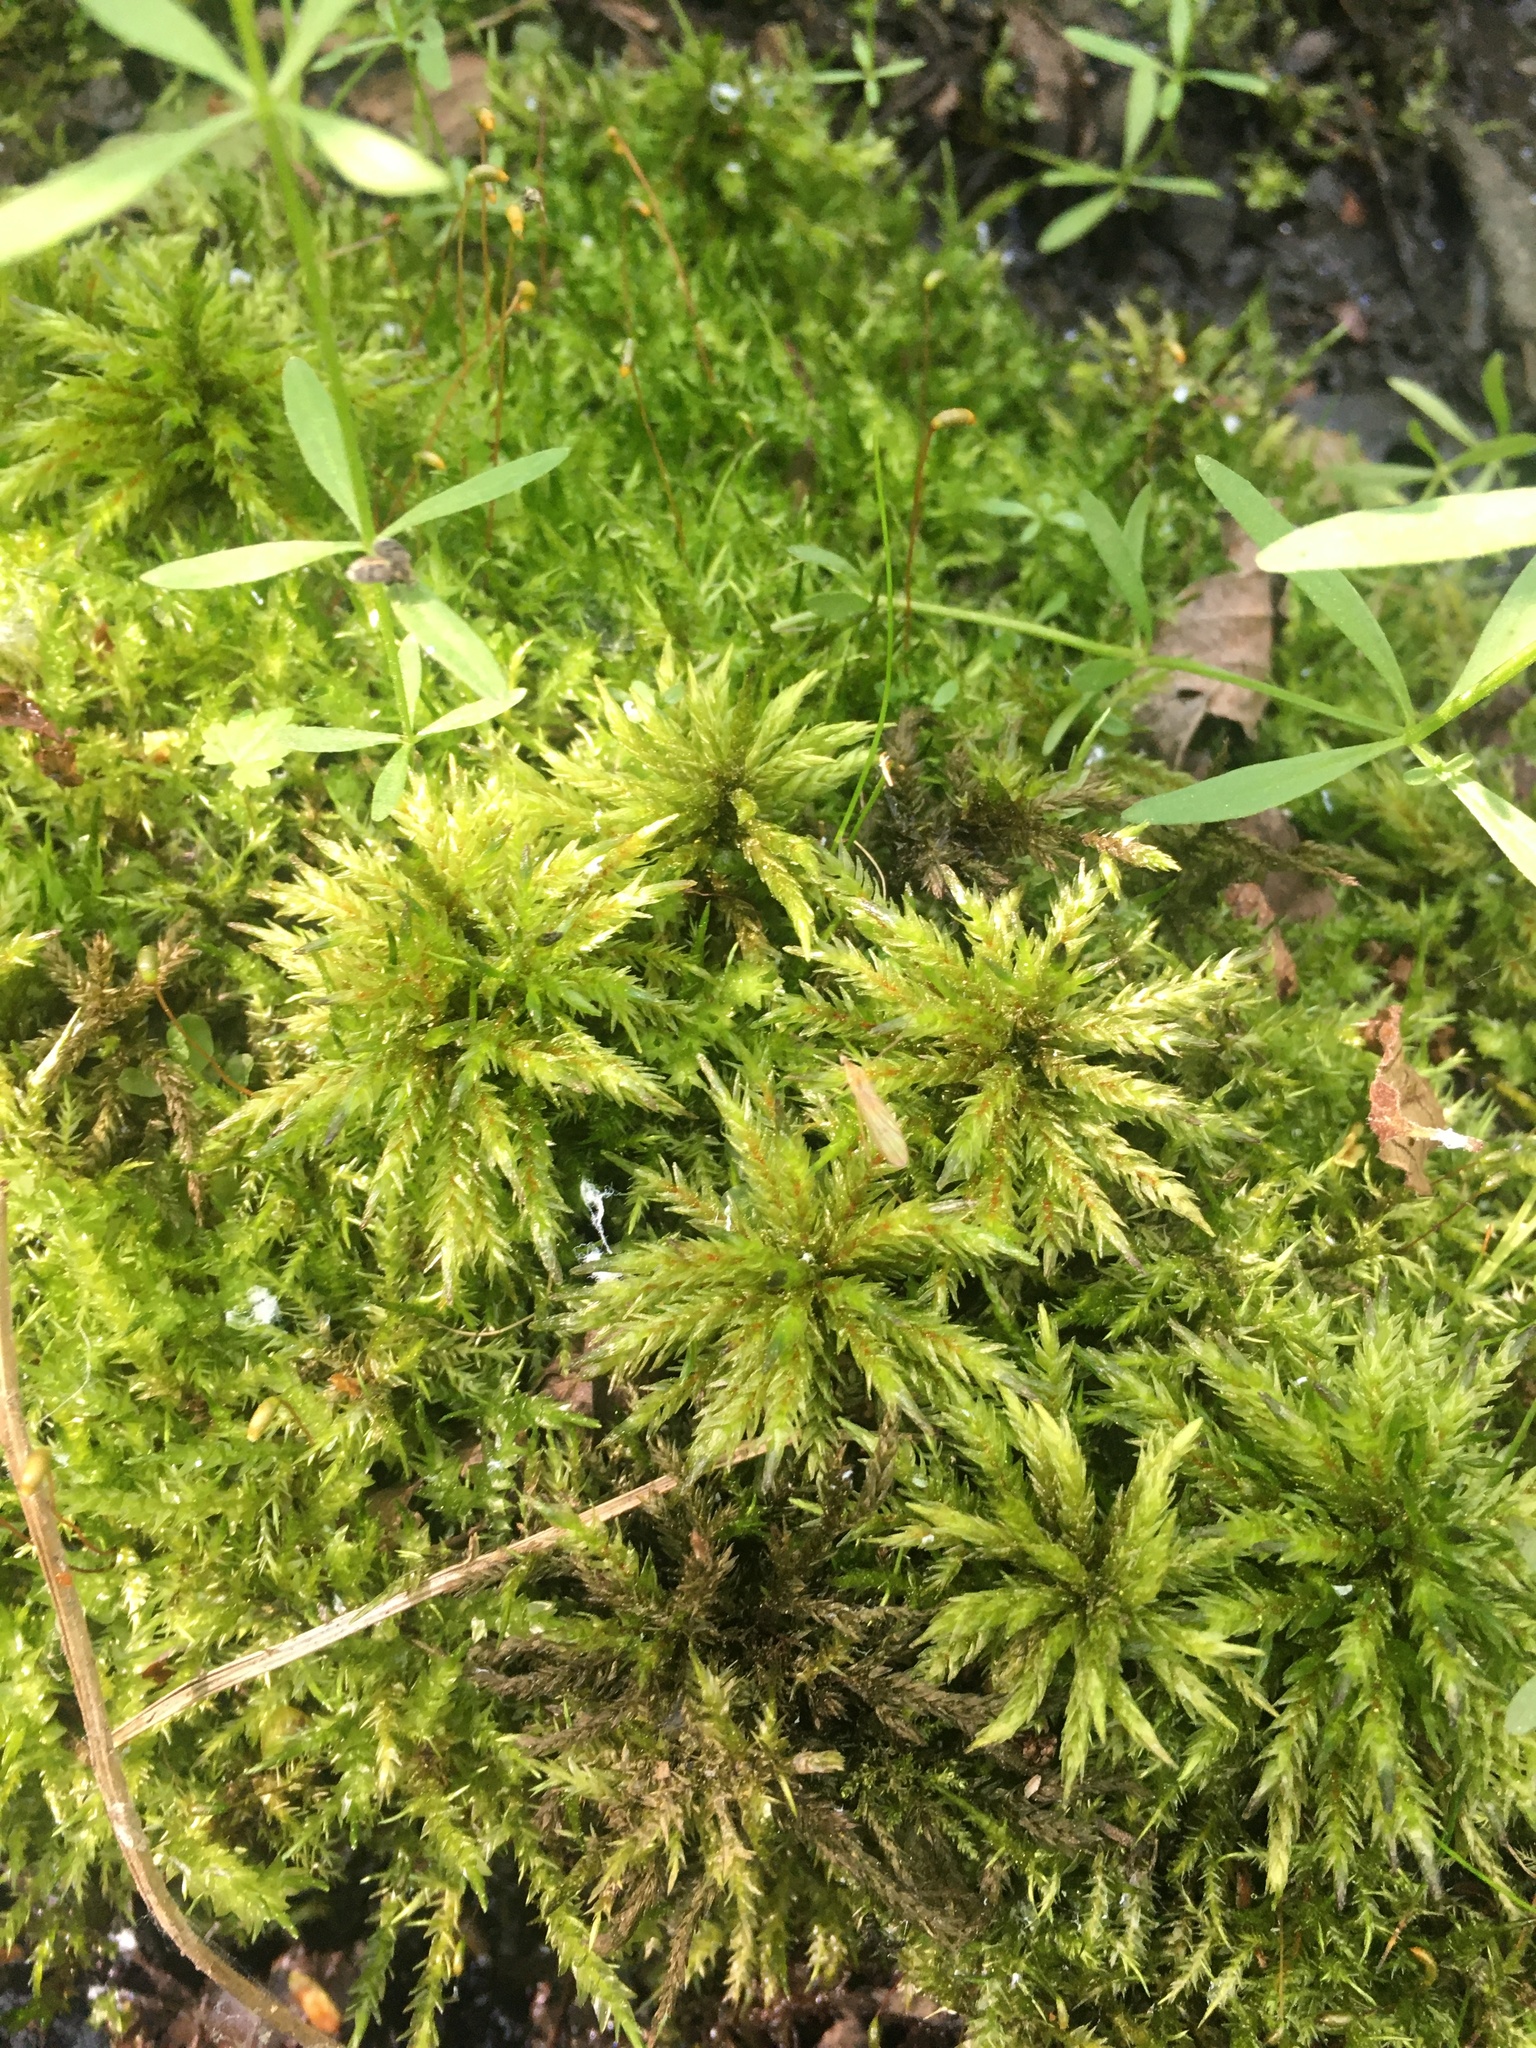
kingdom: Plantae
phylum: Bryophyta
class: Bryopsida
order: Hypnales
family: Climaciaceae
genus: Climacium
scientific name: Climacium dendroides
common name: Northern tree moss
